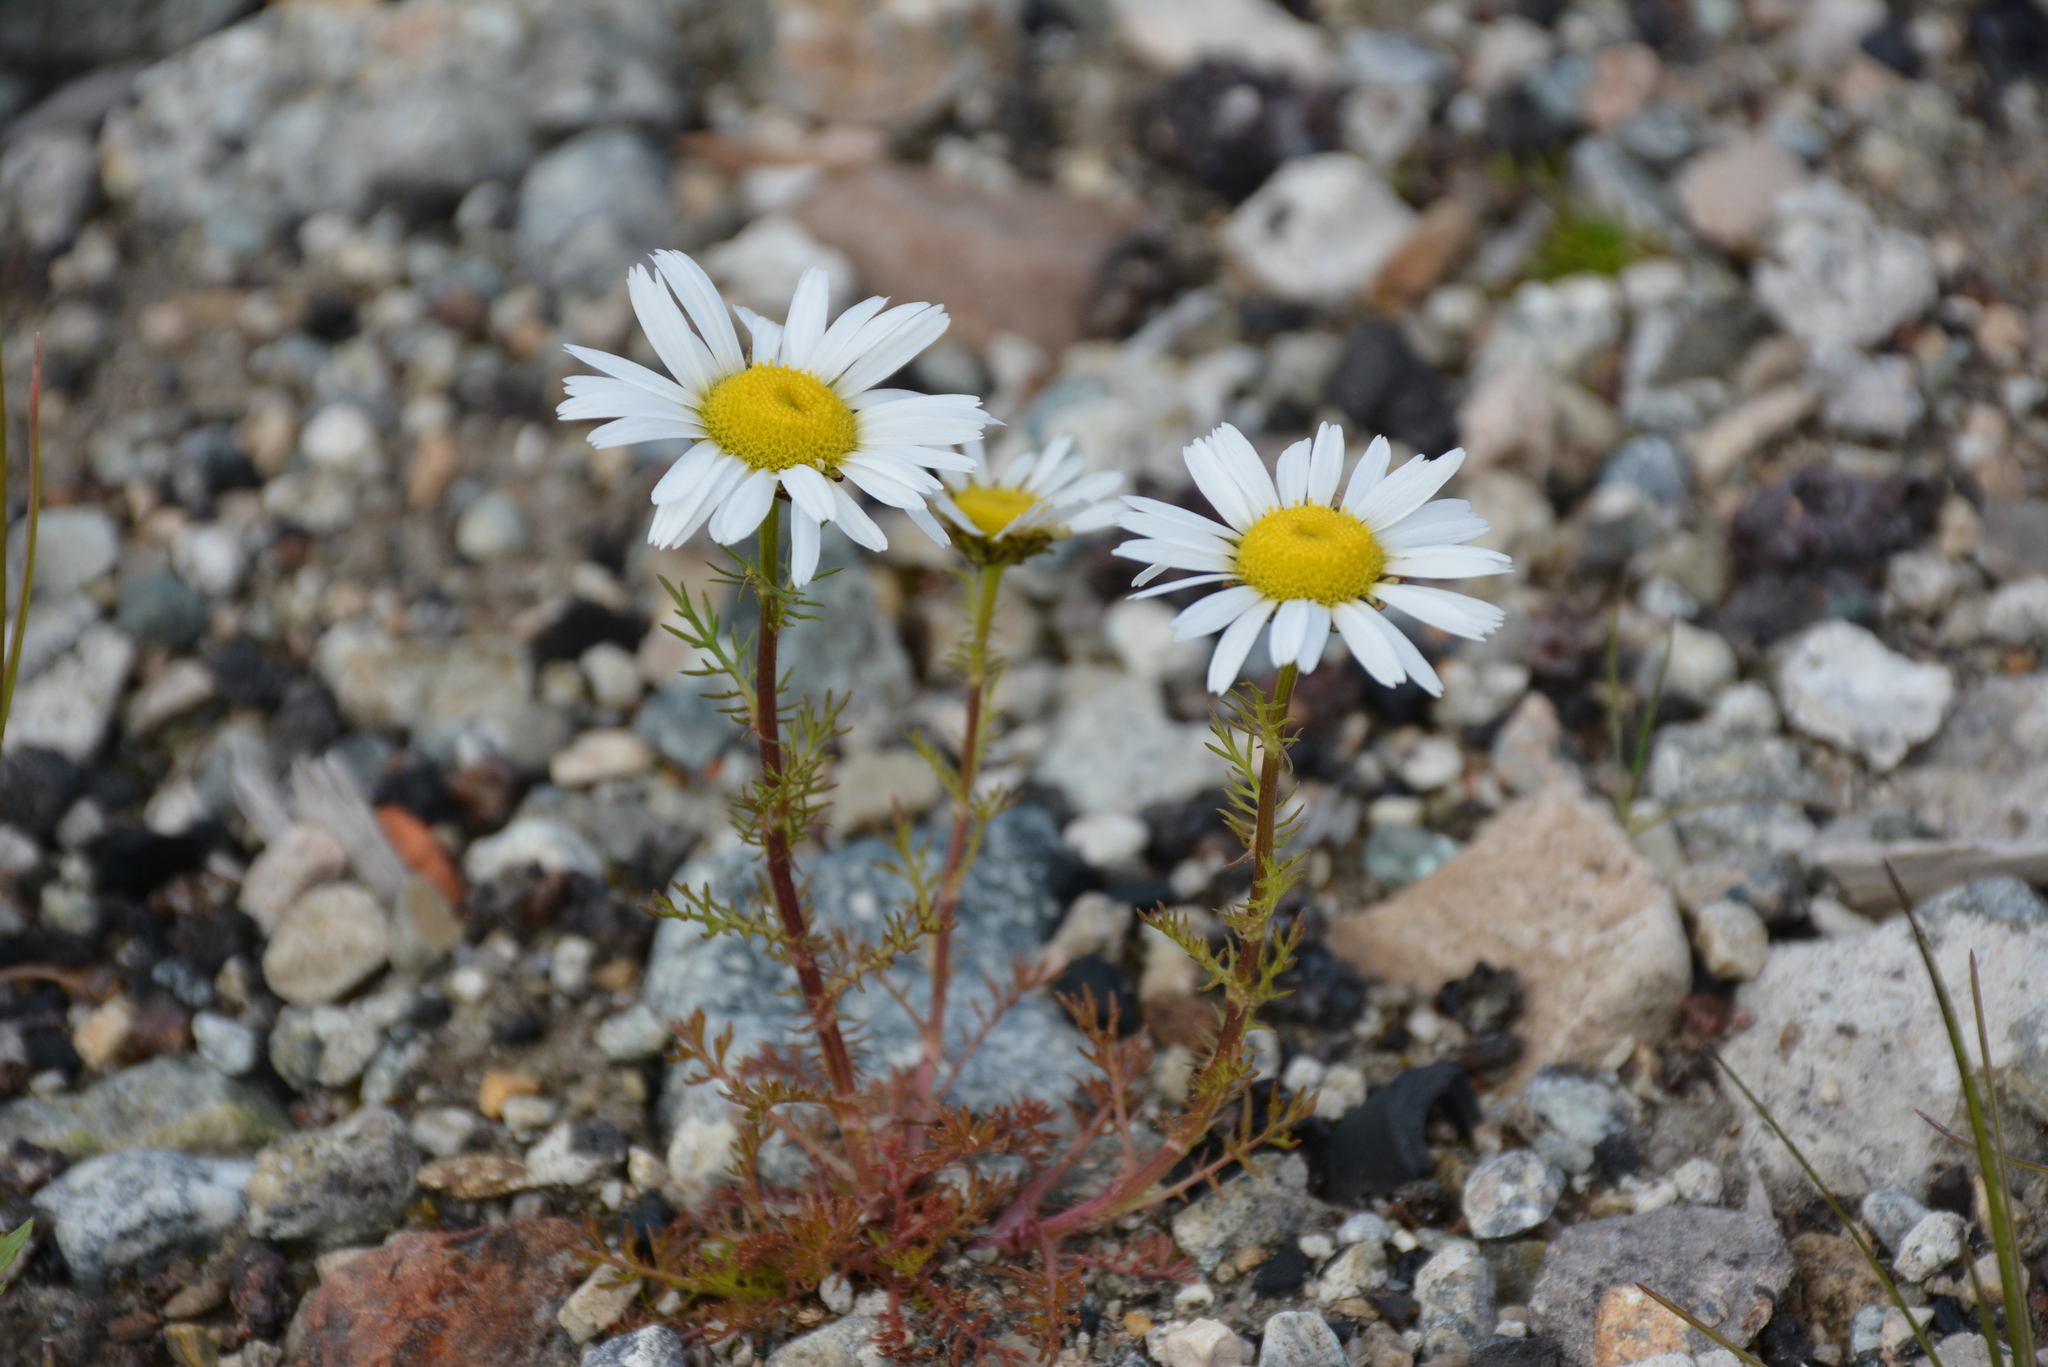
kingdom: Plantae
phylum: Tracheophyta
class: Magnoliopsida
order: Asterales
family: Asteraceae
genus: Tripleurospermum
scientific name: Tripleurospermum hookeri
